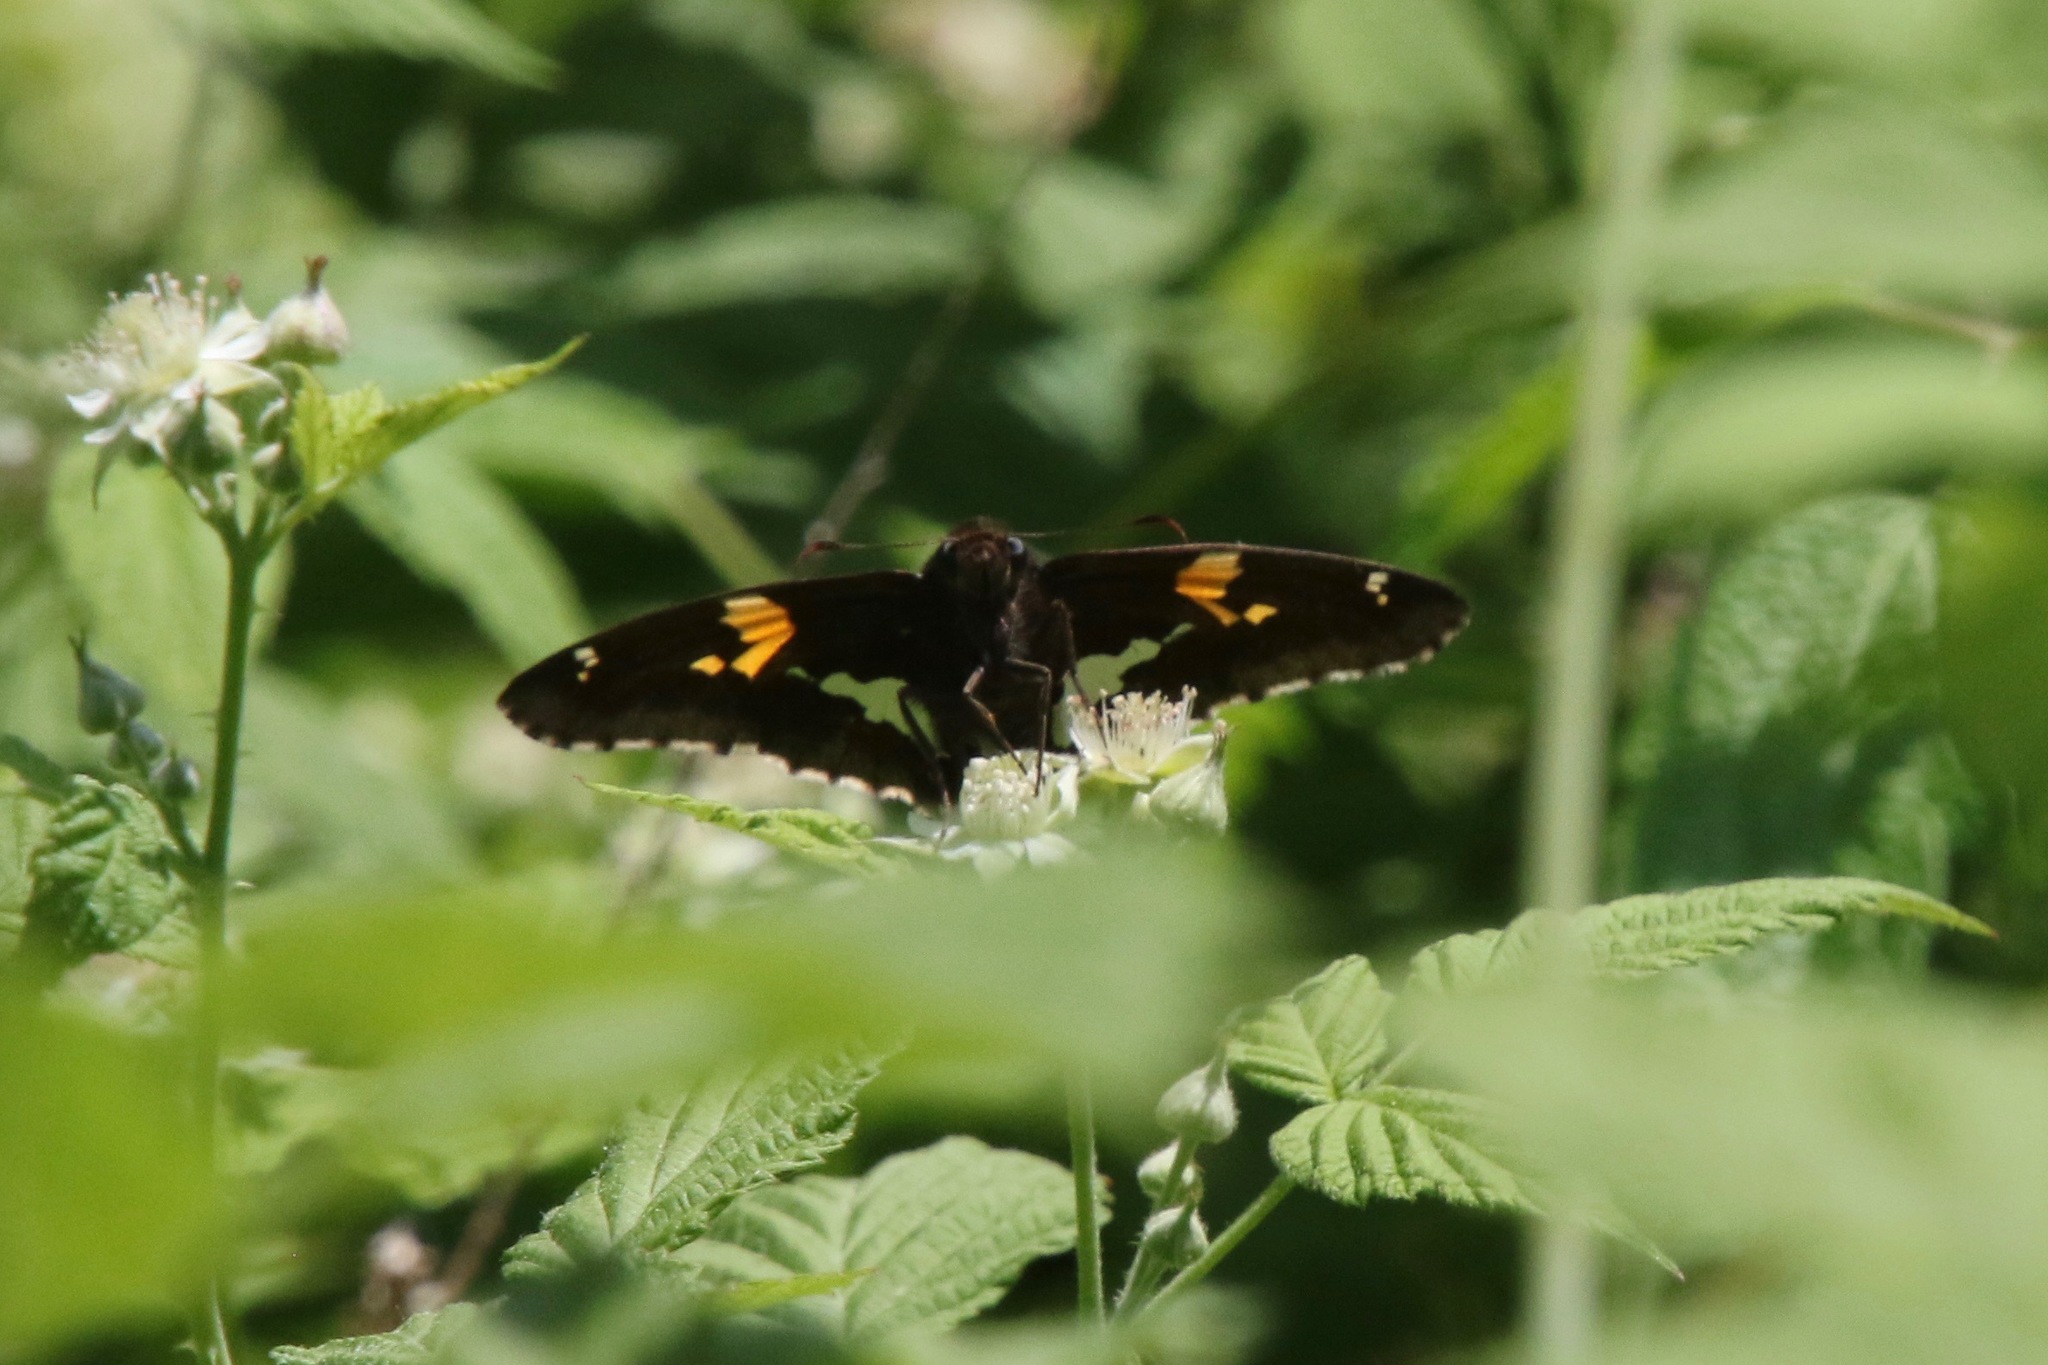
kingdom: Animalia
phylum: Arthropoda
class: Insecta
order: Lepidoptera
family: Hesperiidae
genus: Epargyreus
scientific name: Epargyreus clarus
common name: Silver-spotted skipper
